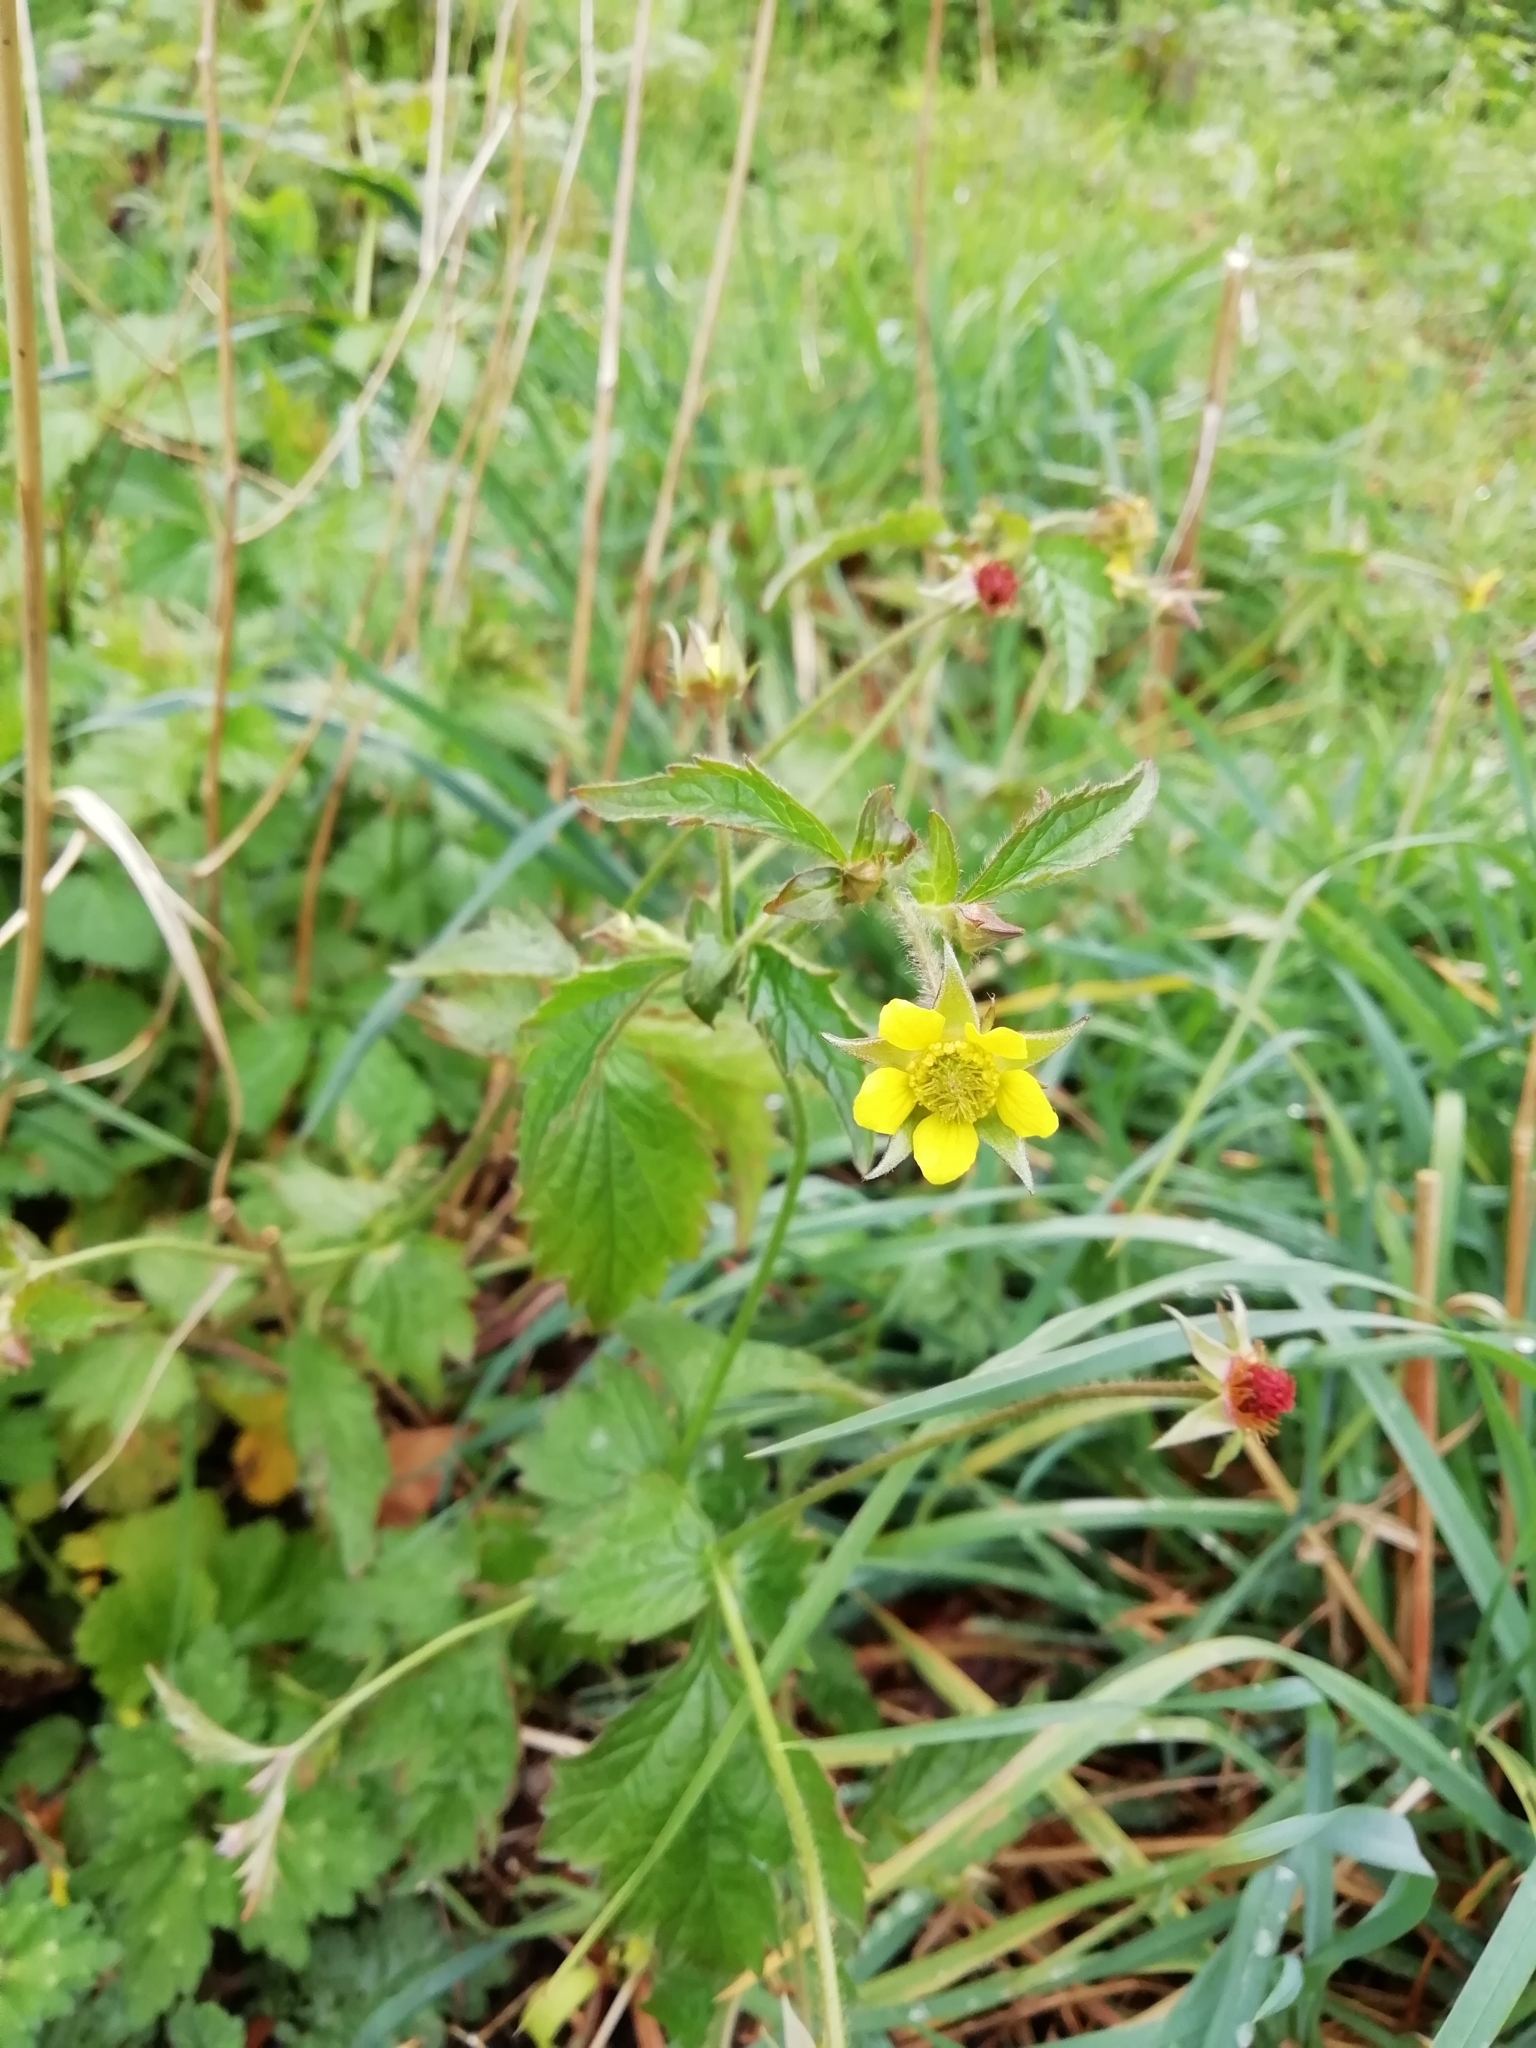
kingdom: Plantae
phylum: Tracheophyta
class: Magnoliopsida
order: Rosales
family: Rosaceae
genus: Geum
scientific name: Geum urbanum
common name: Wood avens
